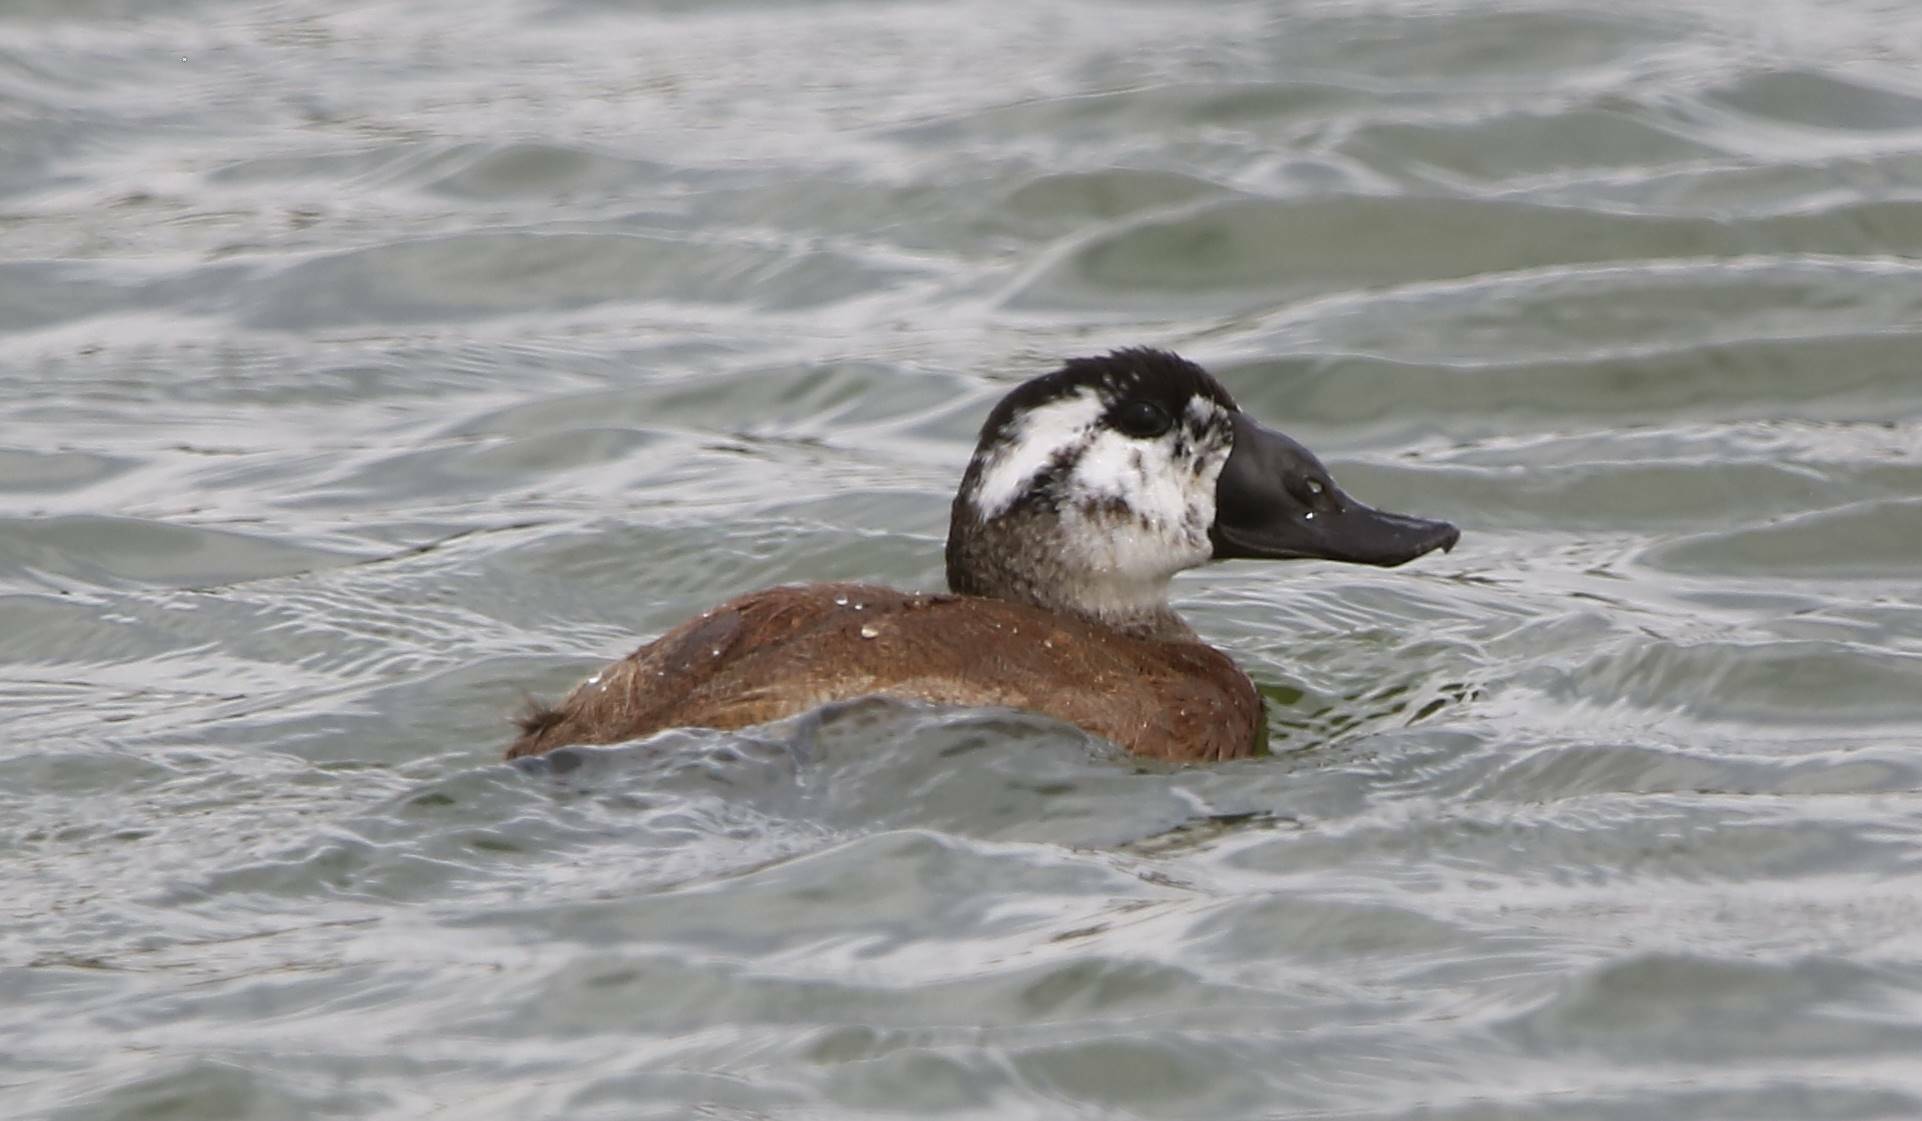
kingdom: Animalia
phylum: Chordata
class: Aves
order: Anseriformes
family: Anatidae
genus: Oxyura
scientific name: Oxyura leucocephala
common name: White-headed duck
